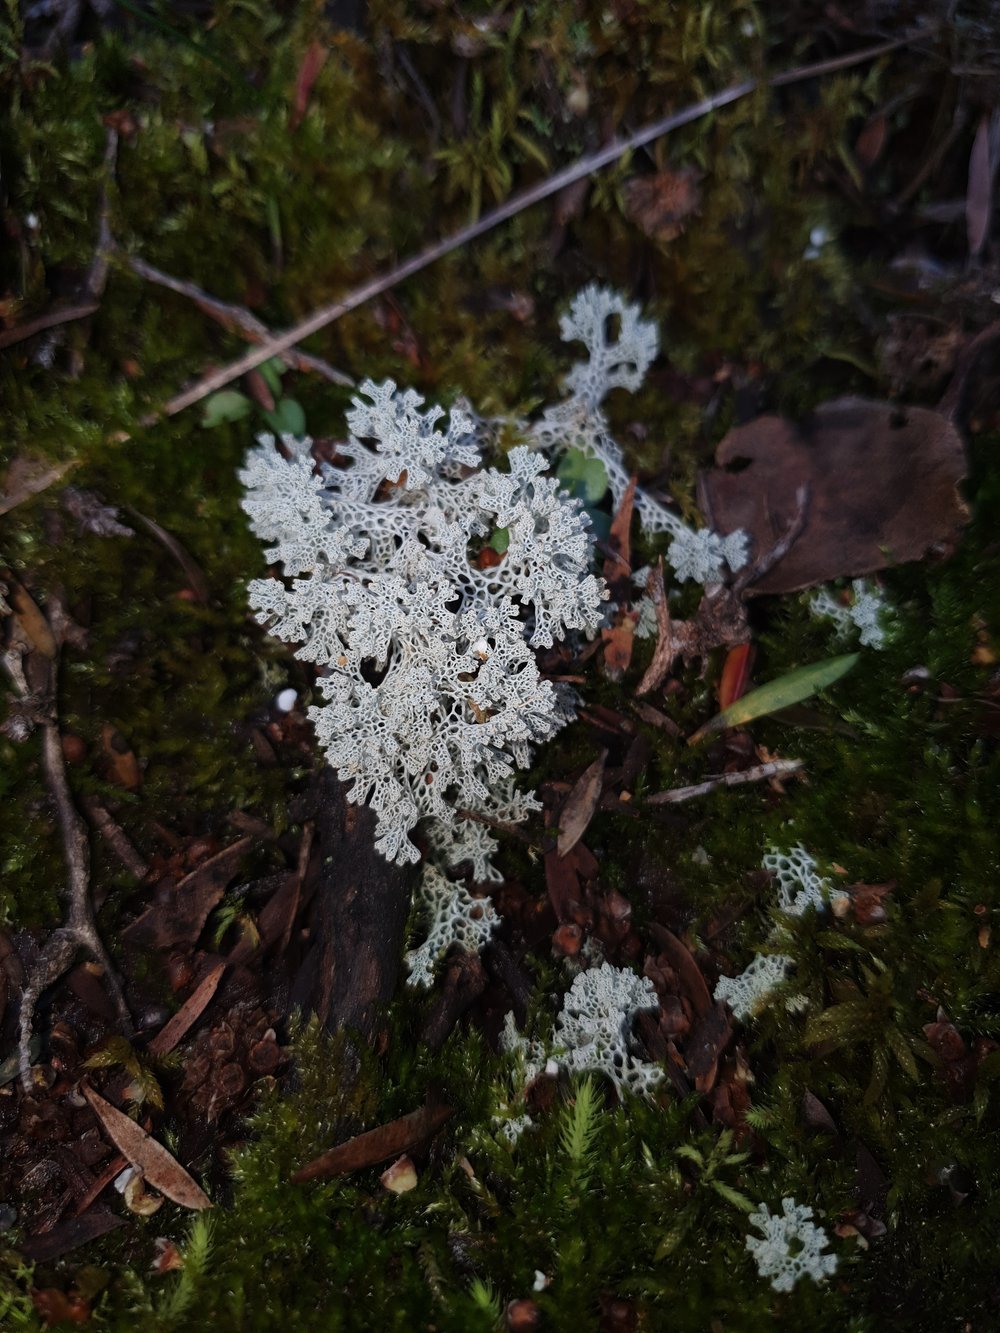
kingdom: Fungi
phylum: Ascomycota
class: Lecanoromycetes
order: Lecanorales
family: Cladoniaceae
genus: Pulchrocladia
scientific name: Pulchrocladia ferdinandii
